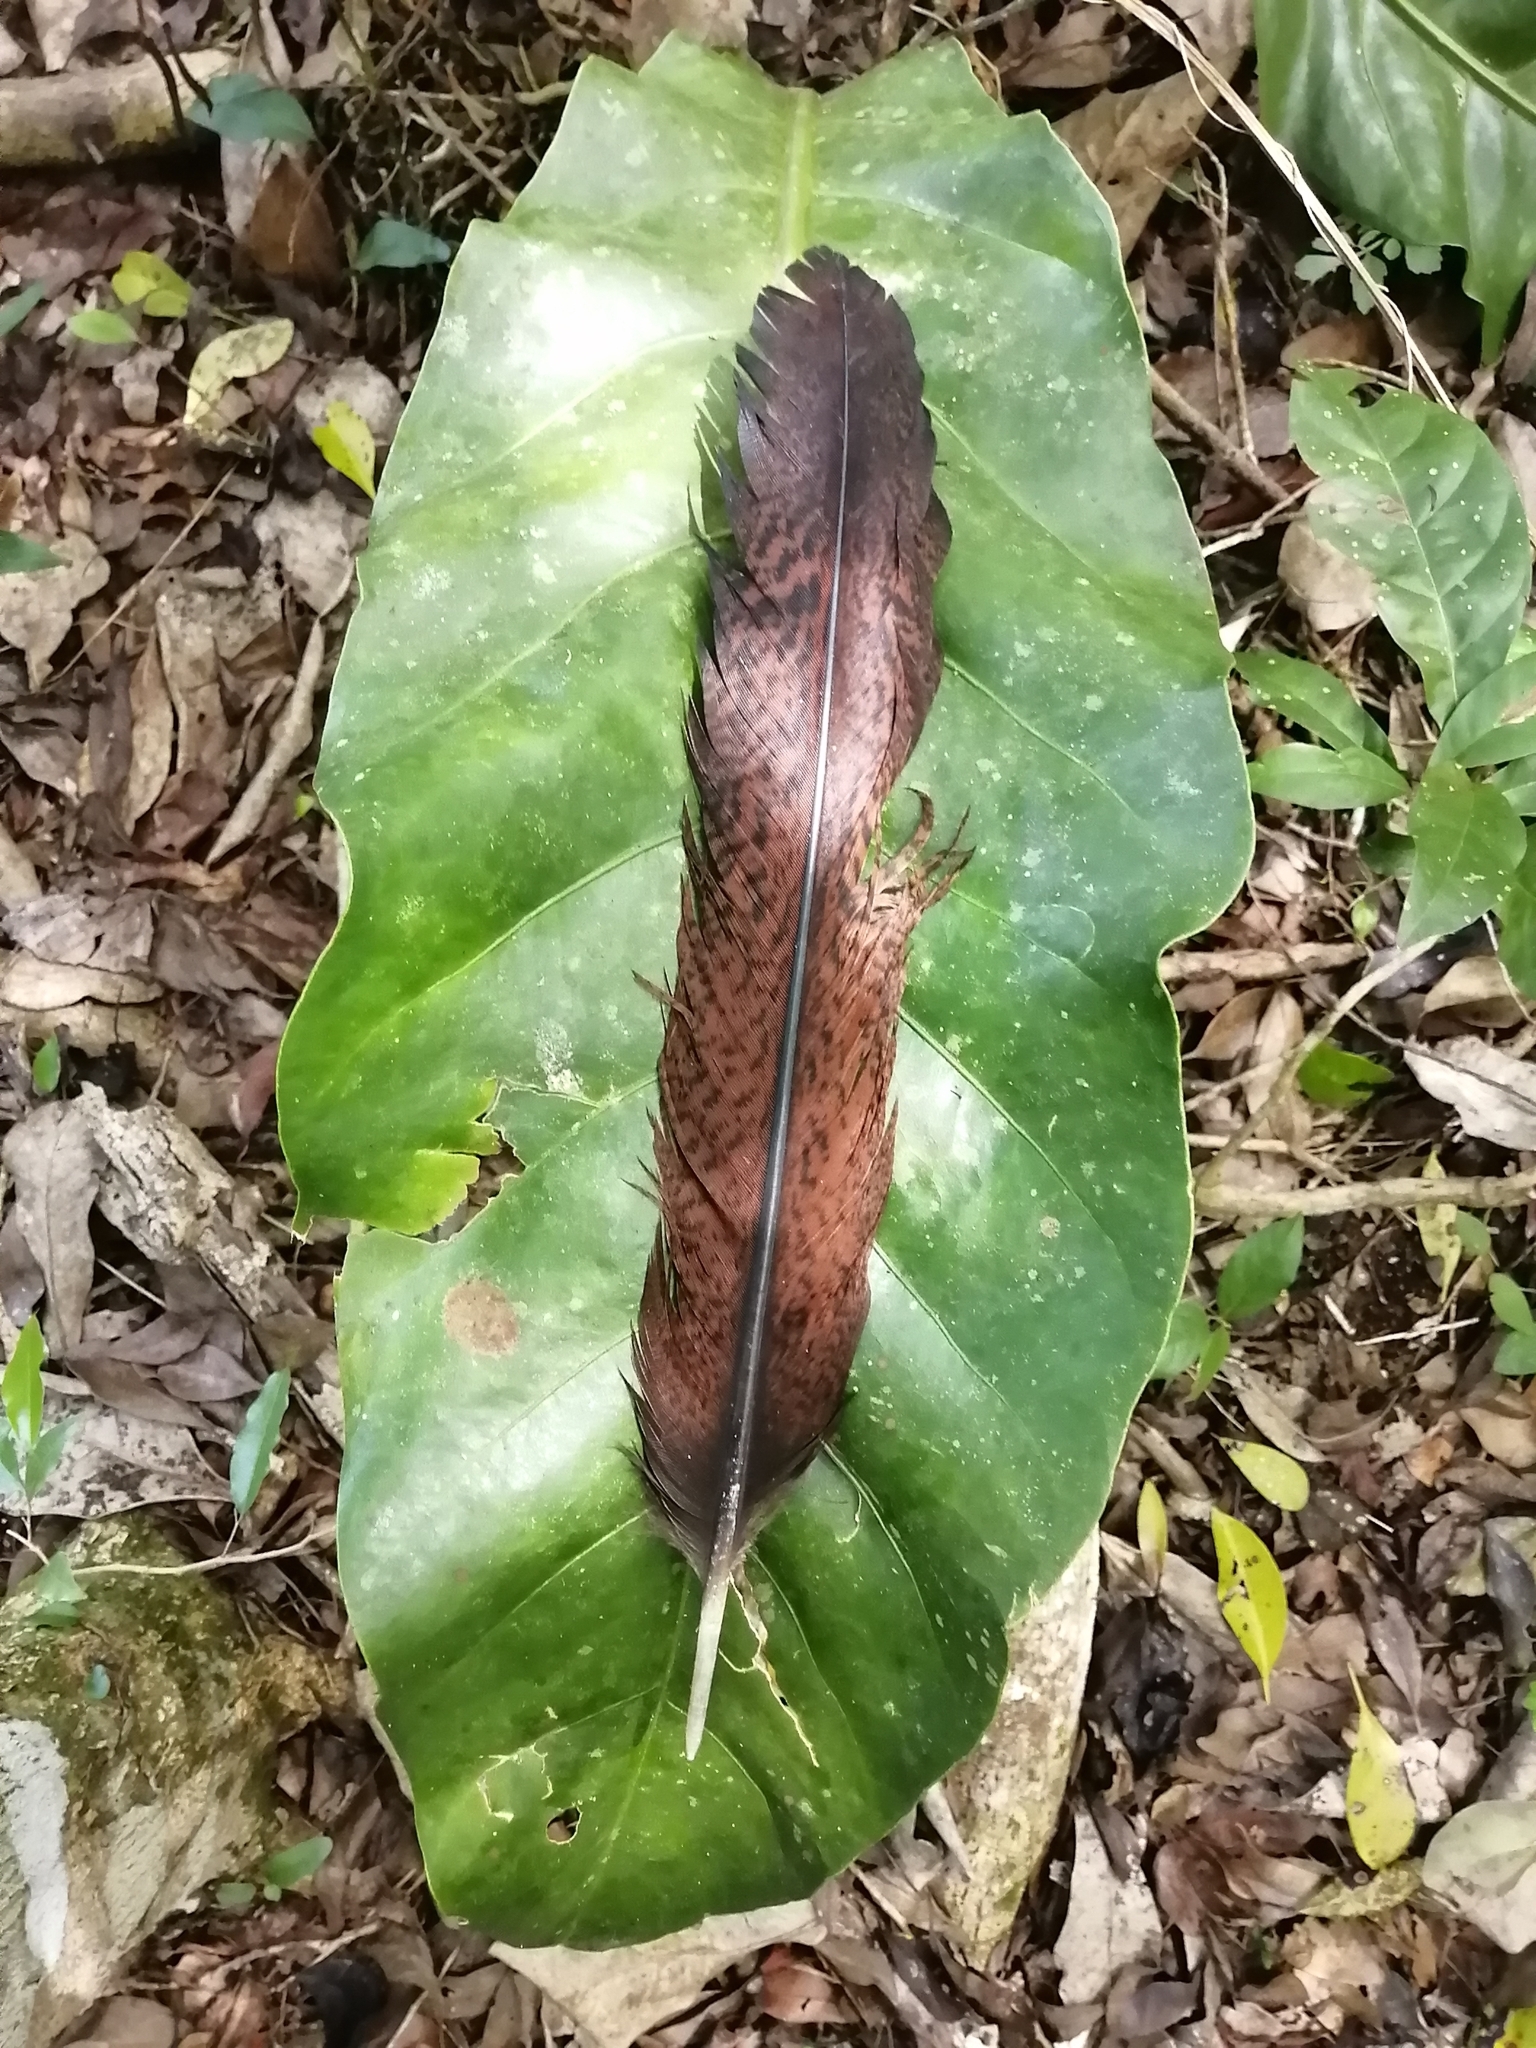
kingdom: Animalia
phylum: Chordata
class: Aves
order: Galliformes
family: Cracidae
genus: Penelope
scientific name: Penelope purpurascens
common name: Crested guan
